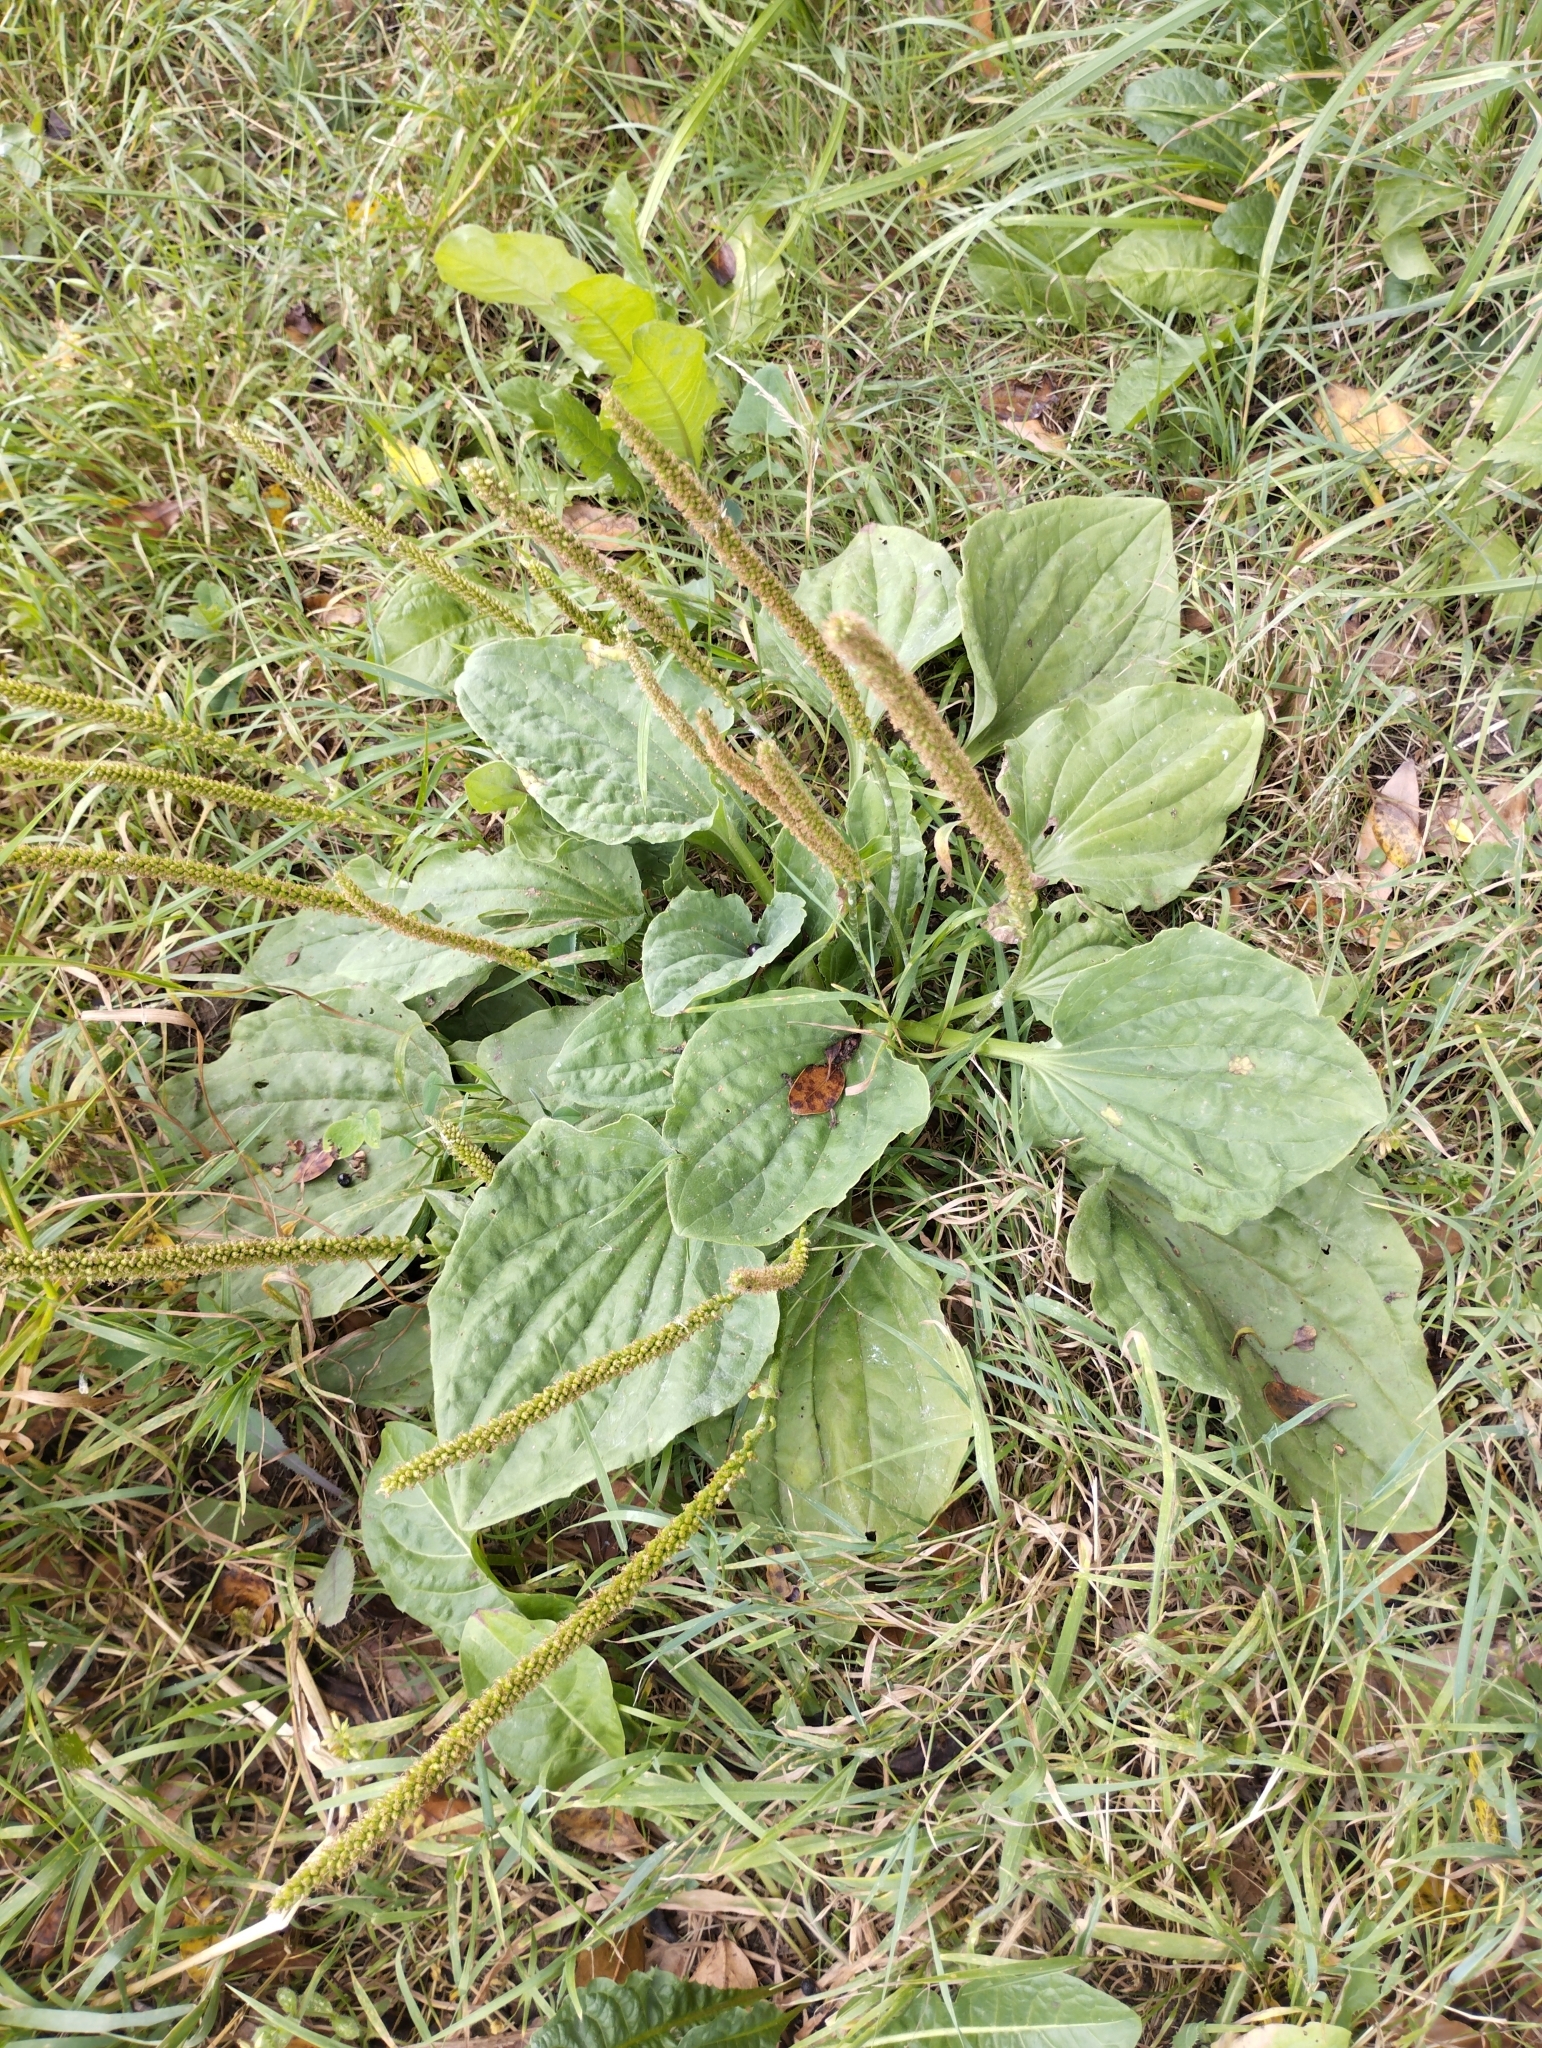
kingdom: Plantae
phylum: Tracheophyta
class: Magnoliopsida
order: Lamiales
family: Plantaginaceae
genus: Plantago
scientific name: Plantago major
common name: Common plantain
